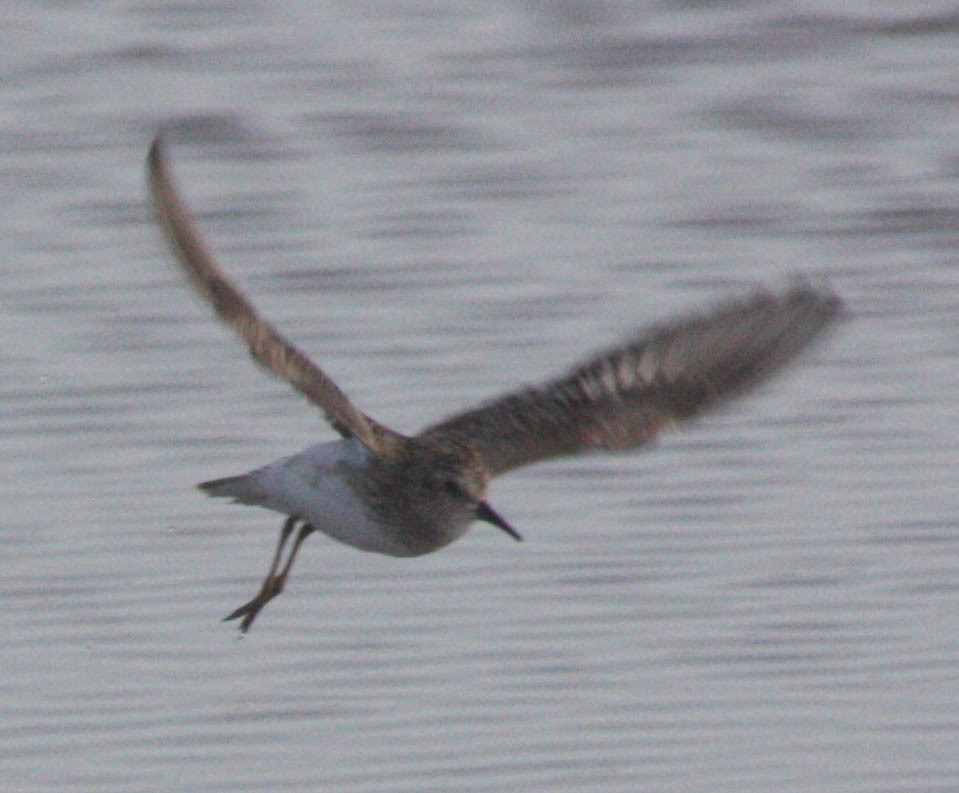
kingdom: Animalia
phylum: Chordata
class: Aves
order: Charadriiformes
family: Scolopacidae
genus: Calidris
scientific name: Calidris minutilla
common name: Least sandpiper
